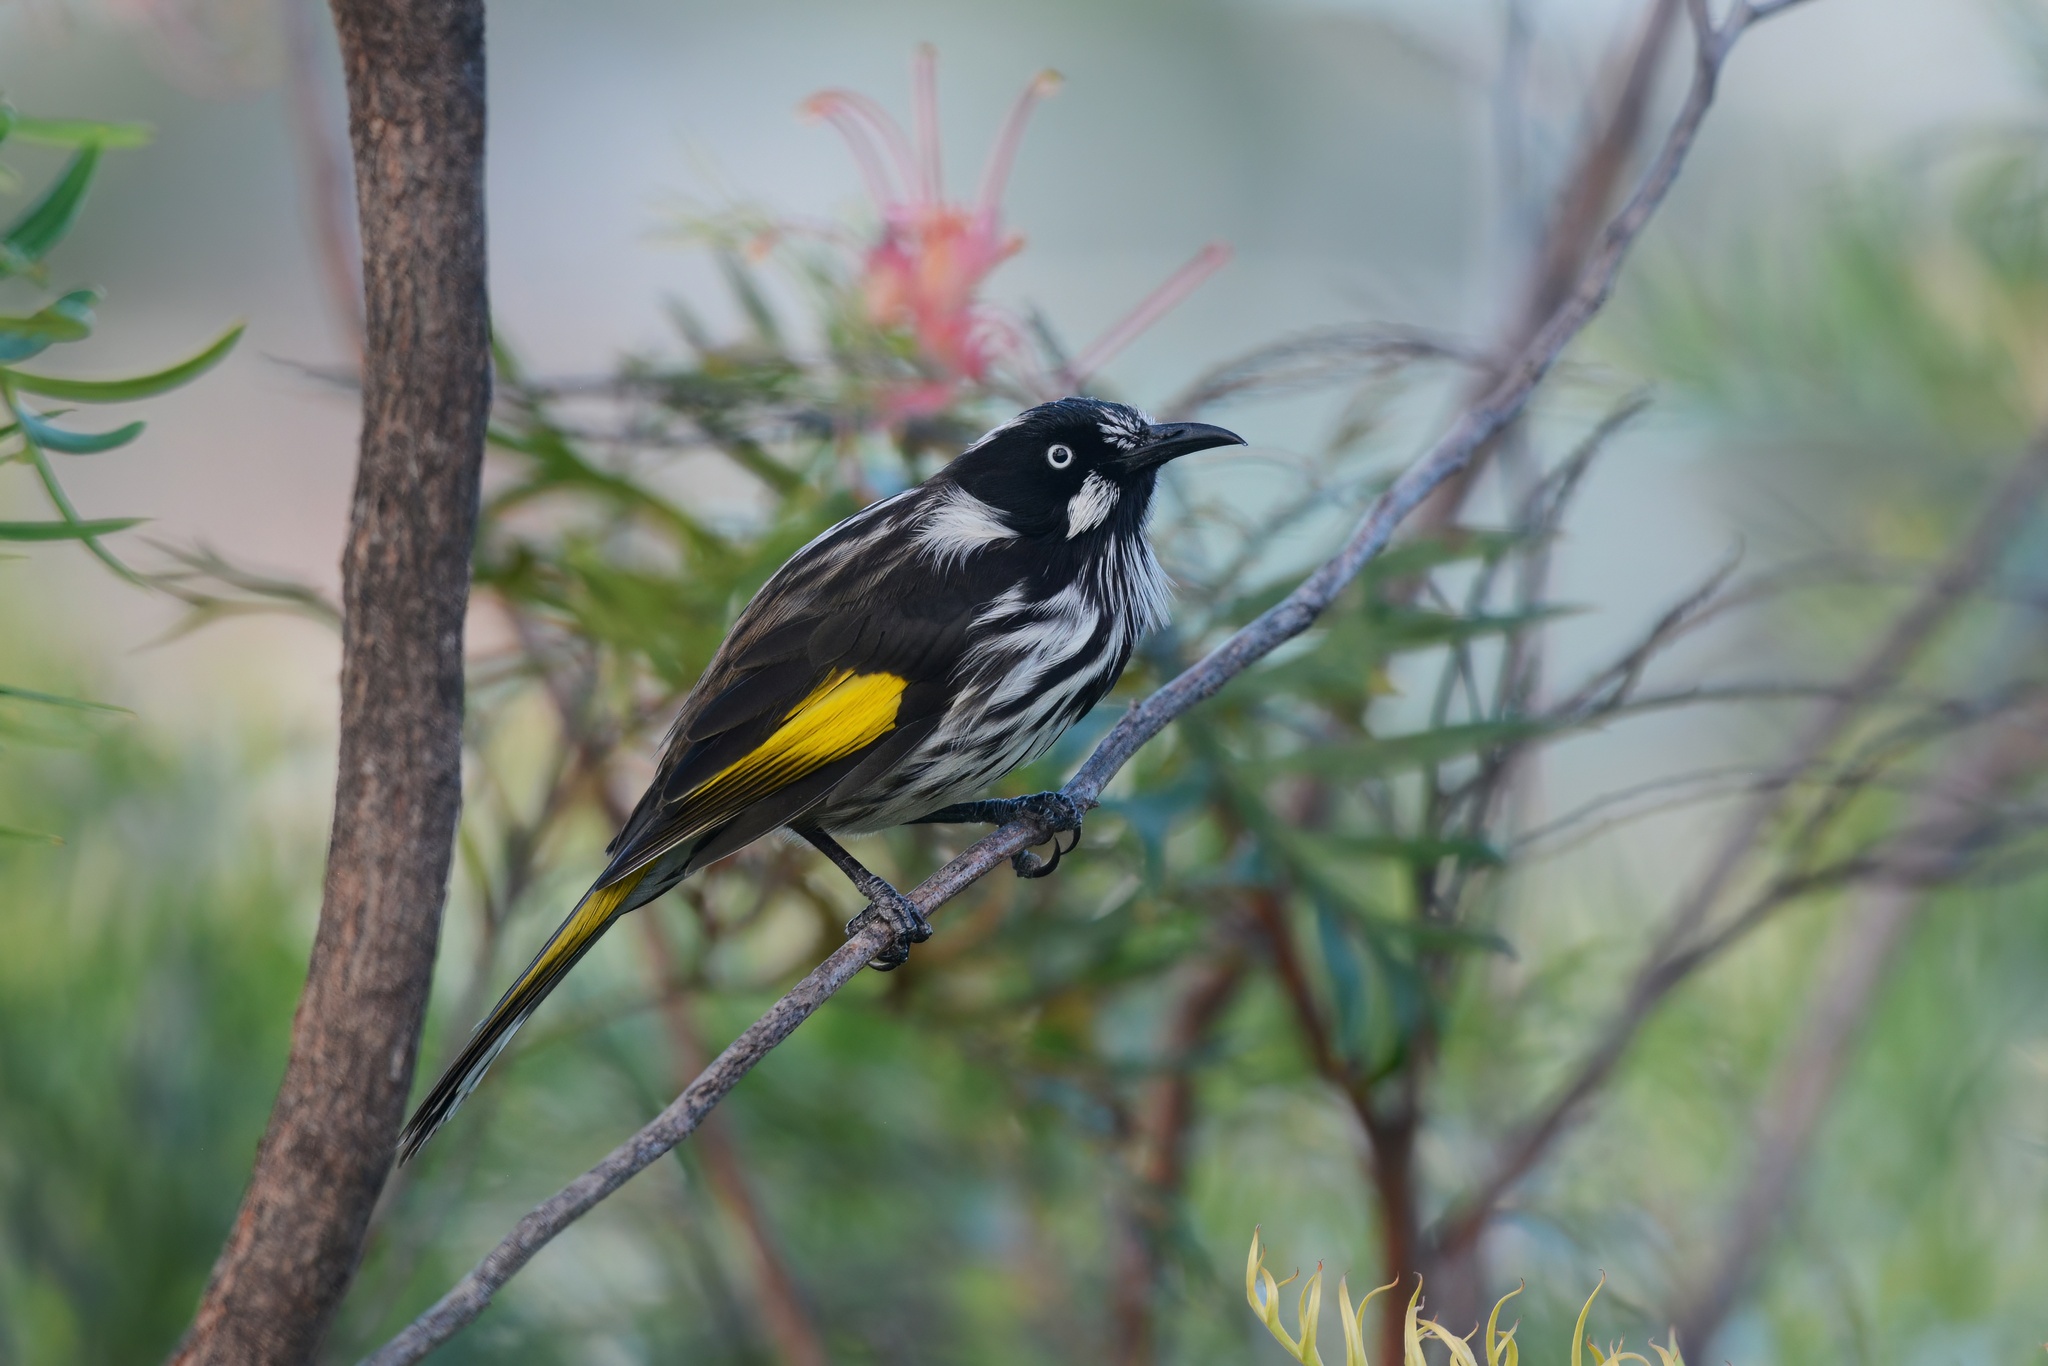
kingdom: Animalia
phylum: Chordata
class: Aves
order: Passeriformes
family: Meliphagidae
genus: Phylidonyris
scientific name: Phylidonyris novaehollandiae
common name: New holland honeyeater
